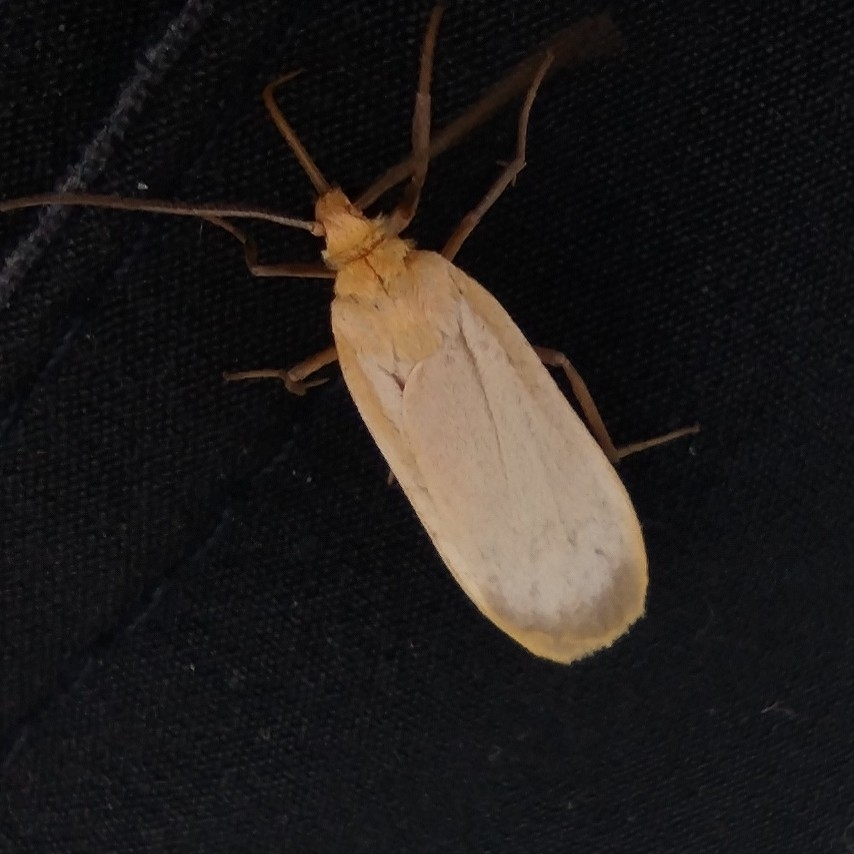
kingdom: Animalia
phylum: Arthropoda
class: Insecta
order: Lepidoptera
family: Erebidae
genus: Katha
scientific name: Katha depressa
